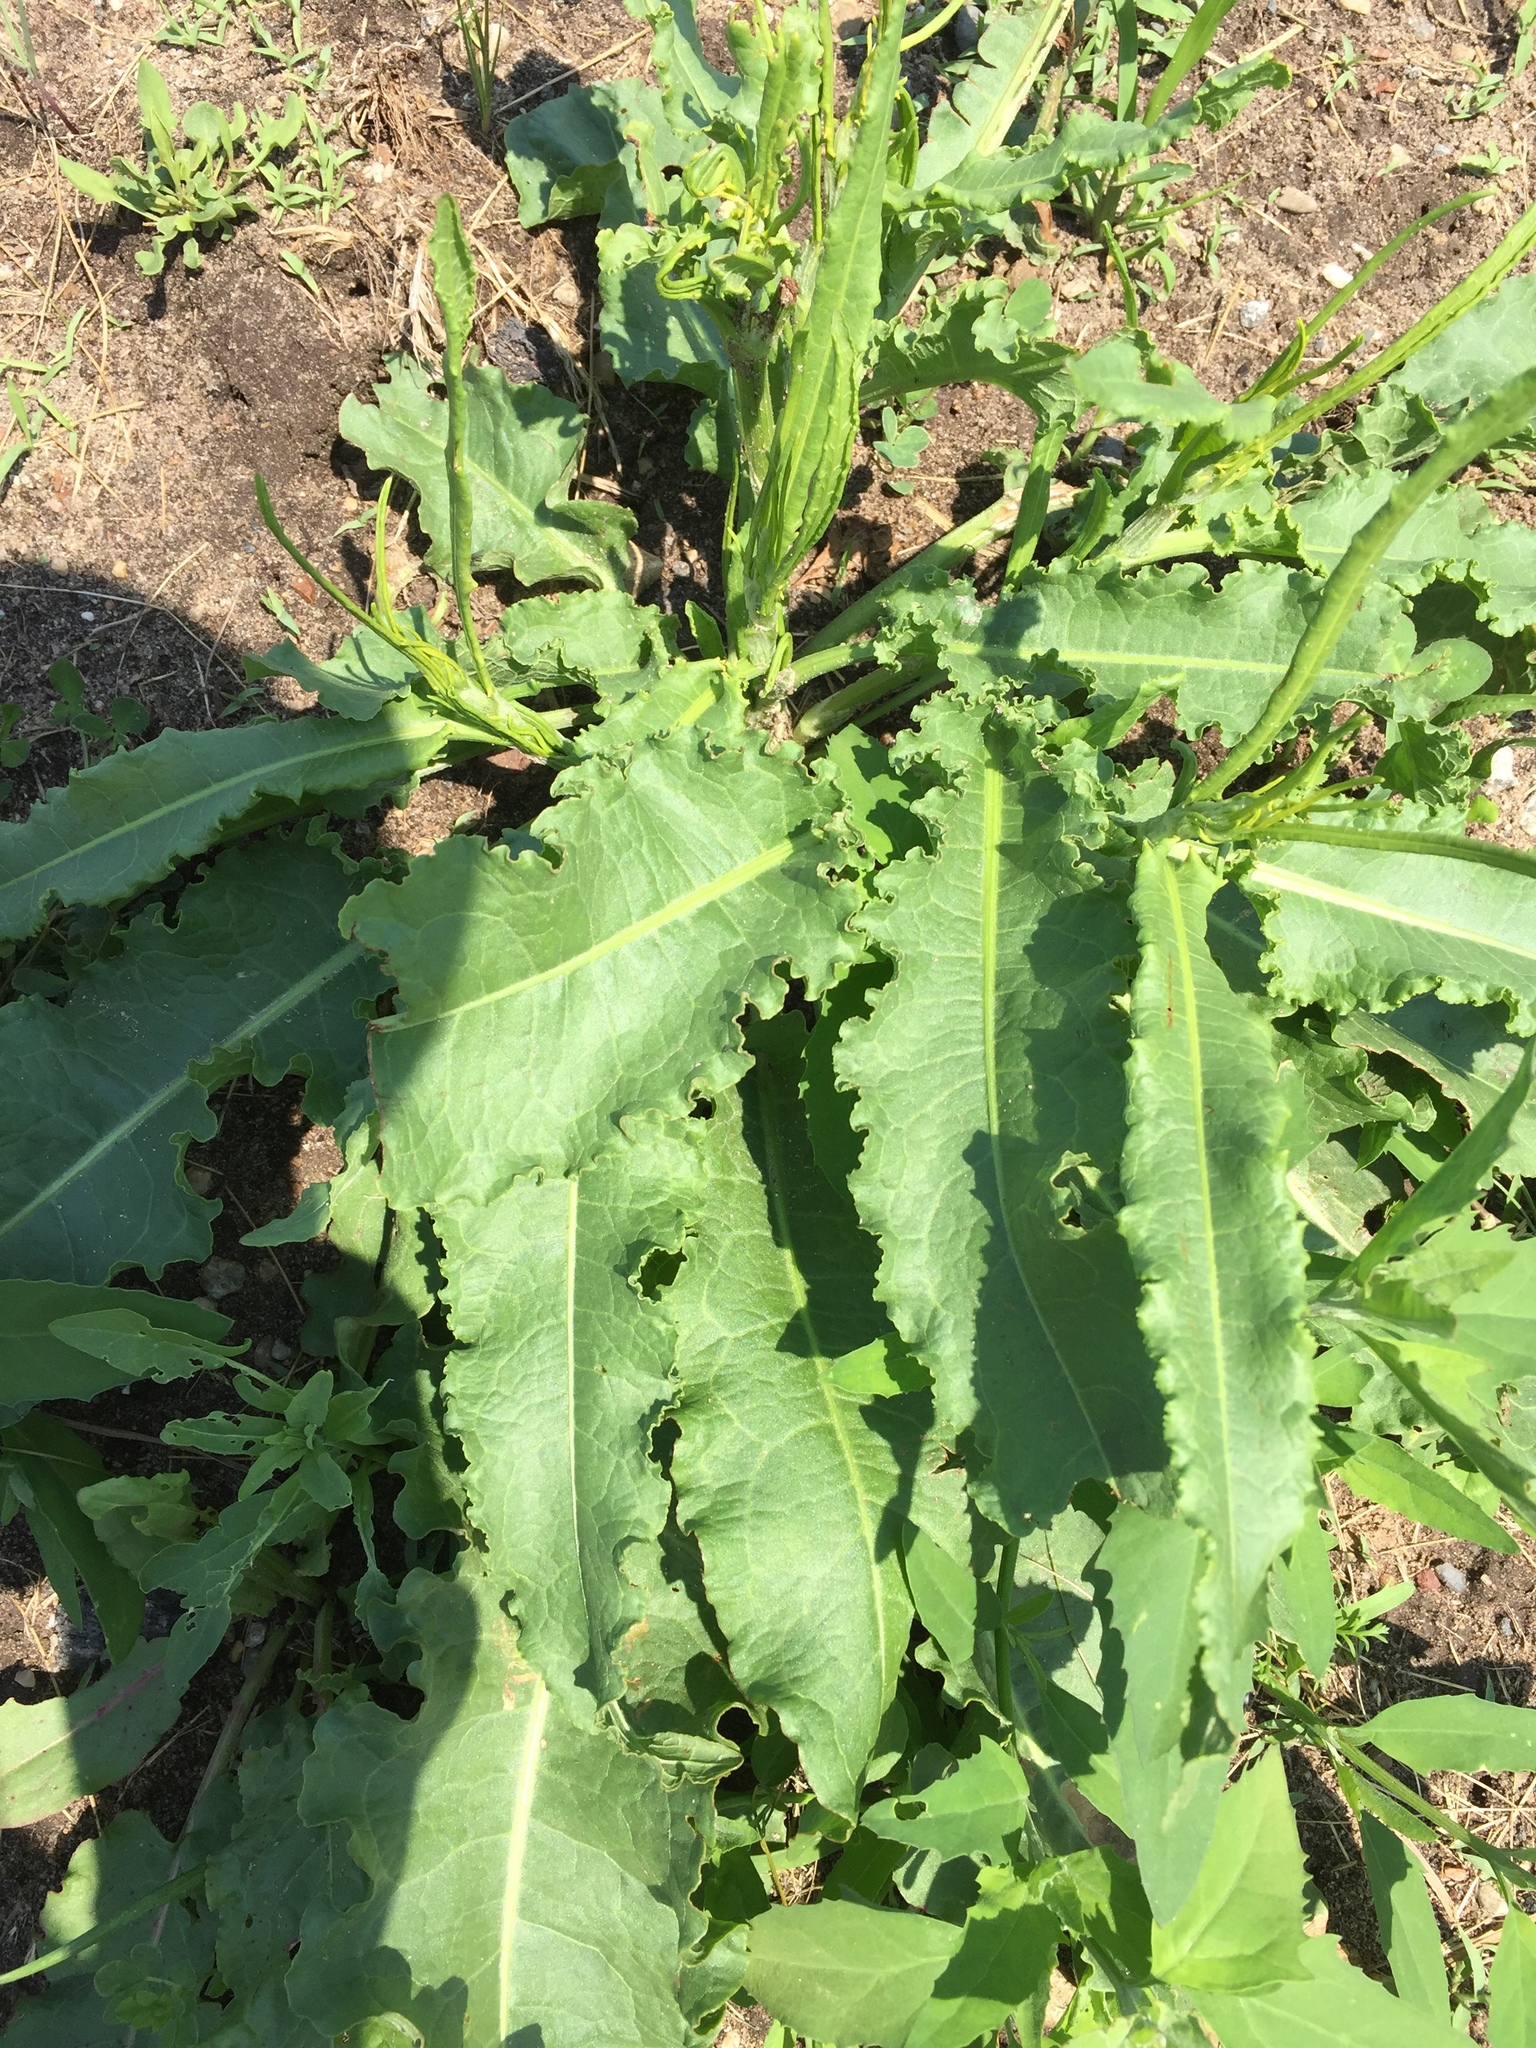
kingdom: Plantae
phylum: Tracheophyta
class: Magnoliopsida
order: Caryophyllales
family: Polygonaceae
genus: Rumex
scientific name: Rumex crispus
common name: Curled dock
